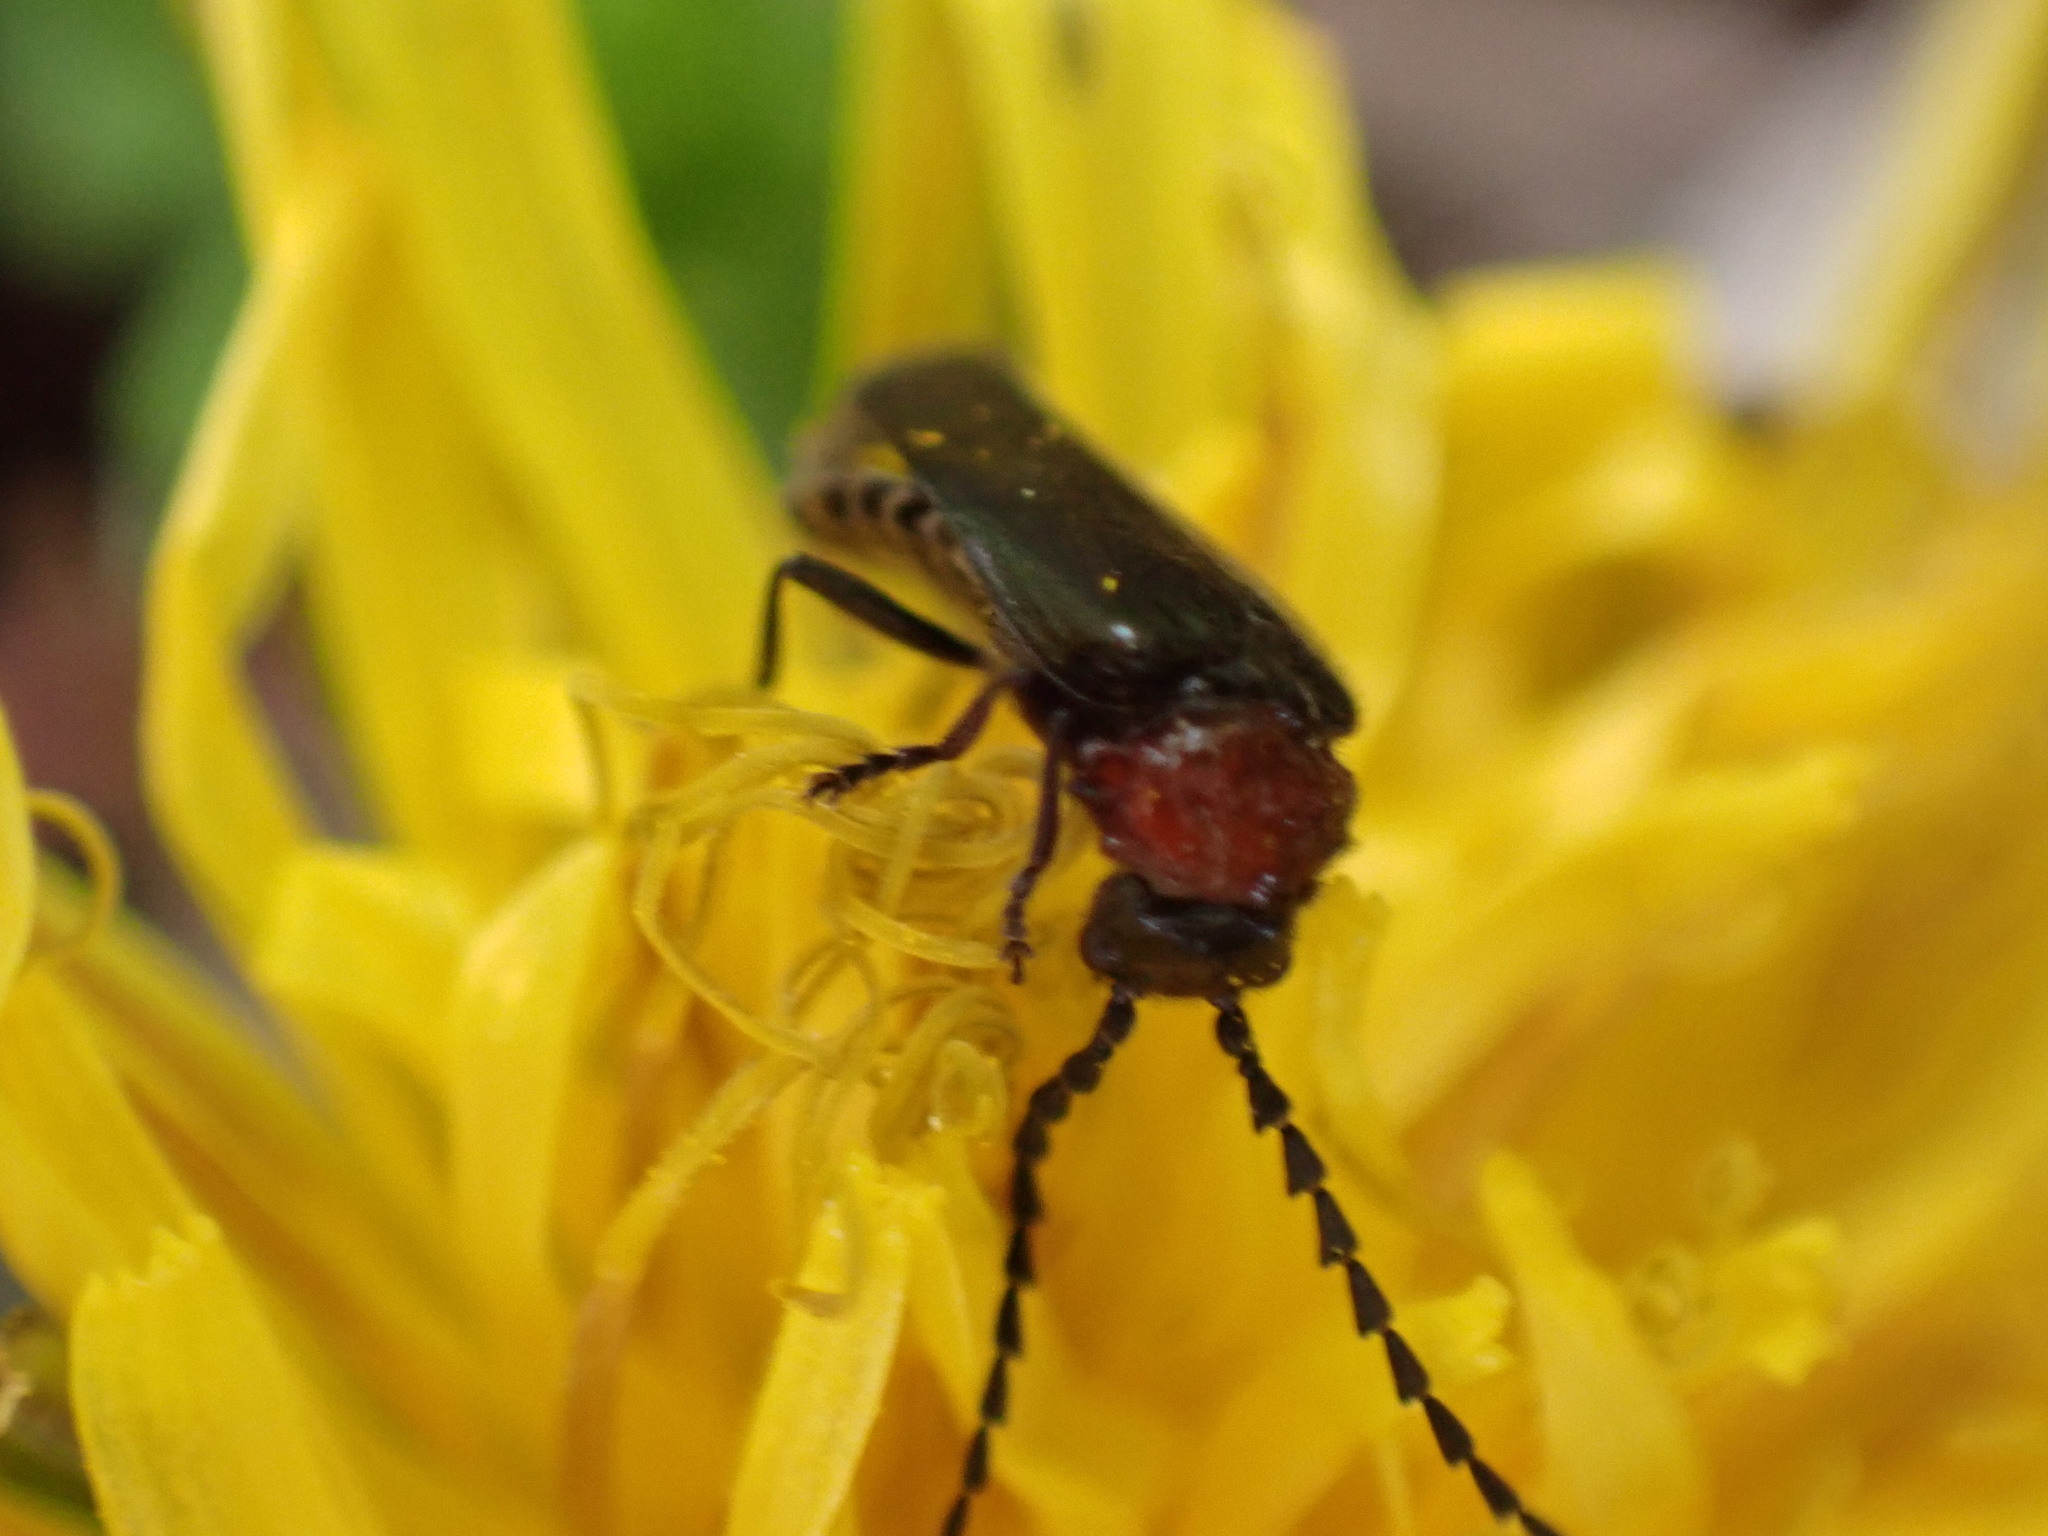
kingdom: Animalia
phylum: Arthropoda
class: Insecta
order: Coleoptera
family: Cantharidae
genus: Ditemnus
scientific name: Ditemnus bidentatus
